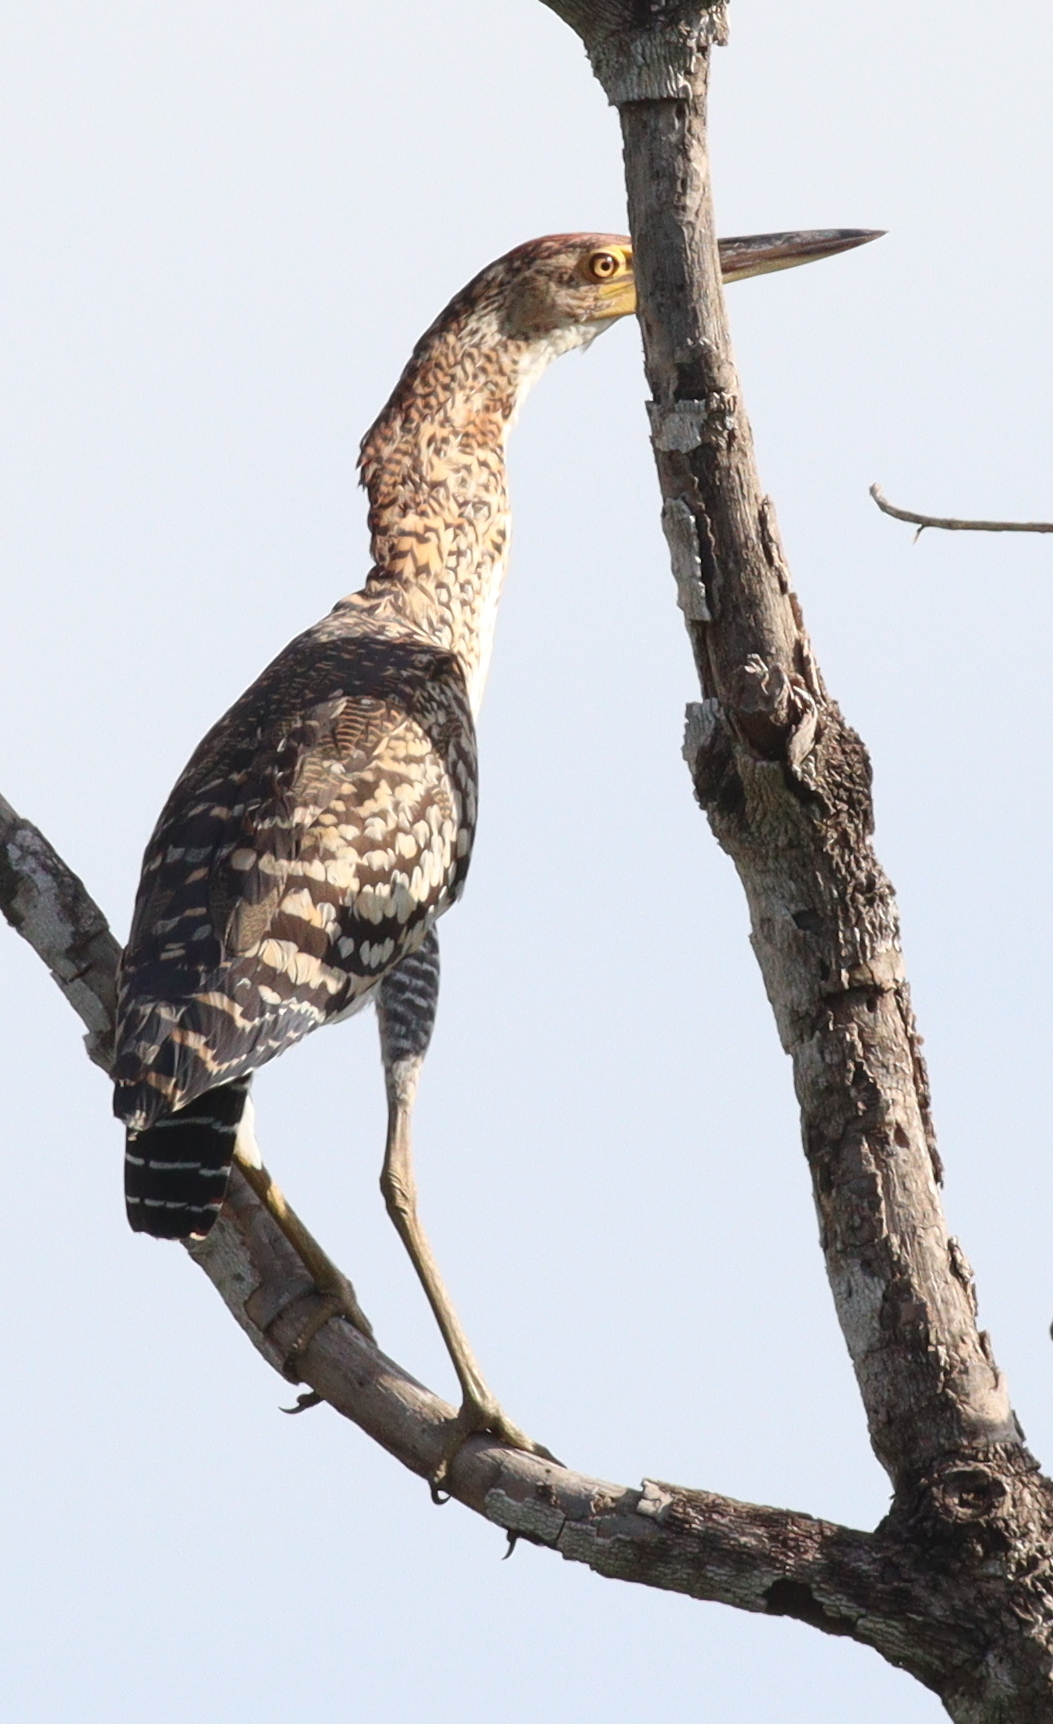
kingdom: Animalia
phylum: Chordata
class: Aves
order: Pelecaniformes
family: Ardeidae
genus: Tigrisoma
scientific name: Tigrisoma lineatum
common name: Rufescent tiger-heron
